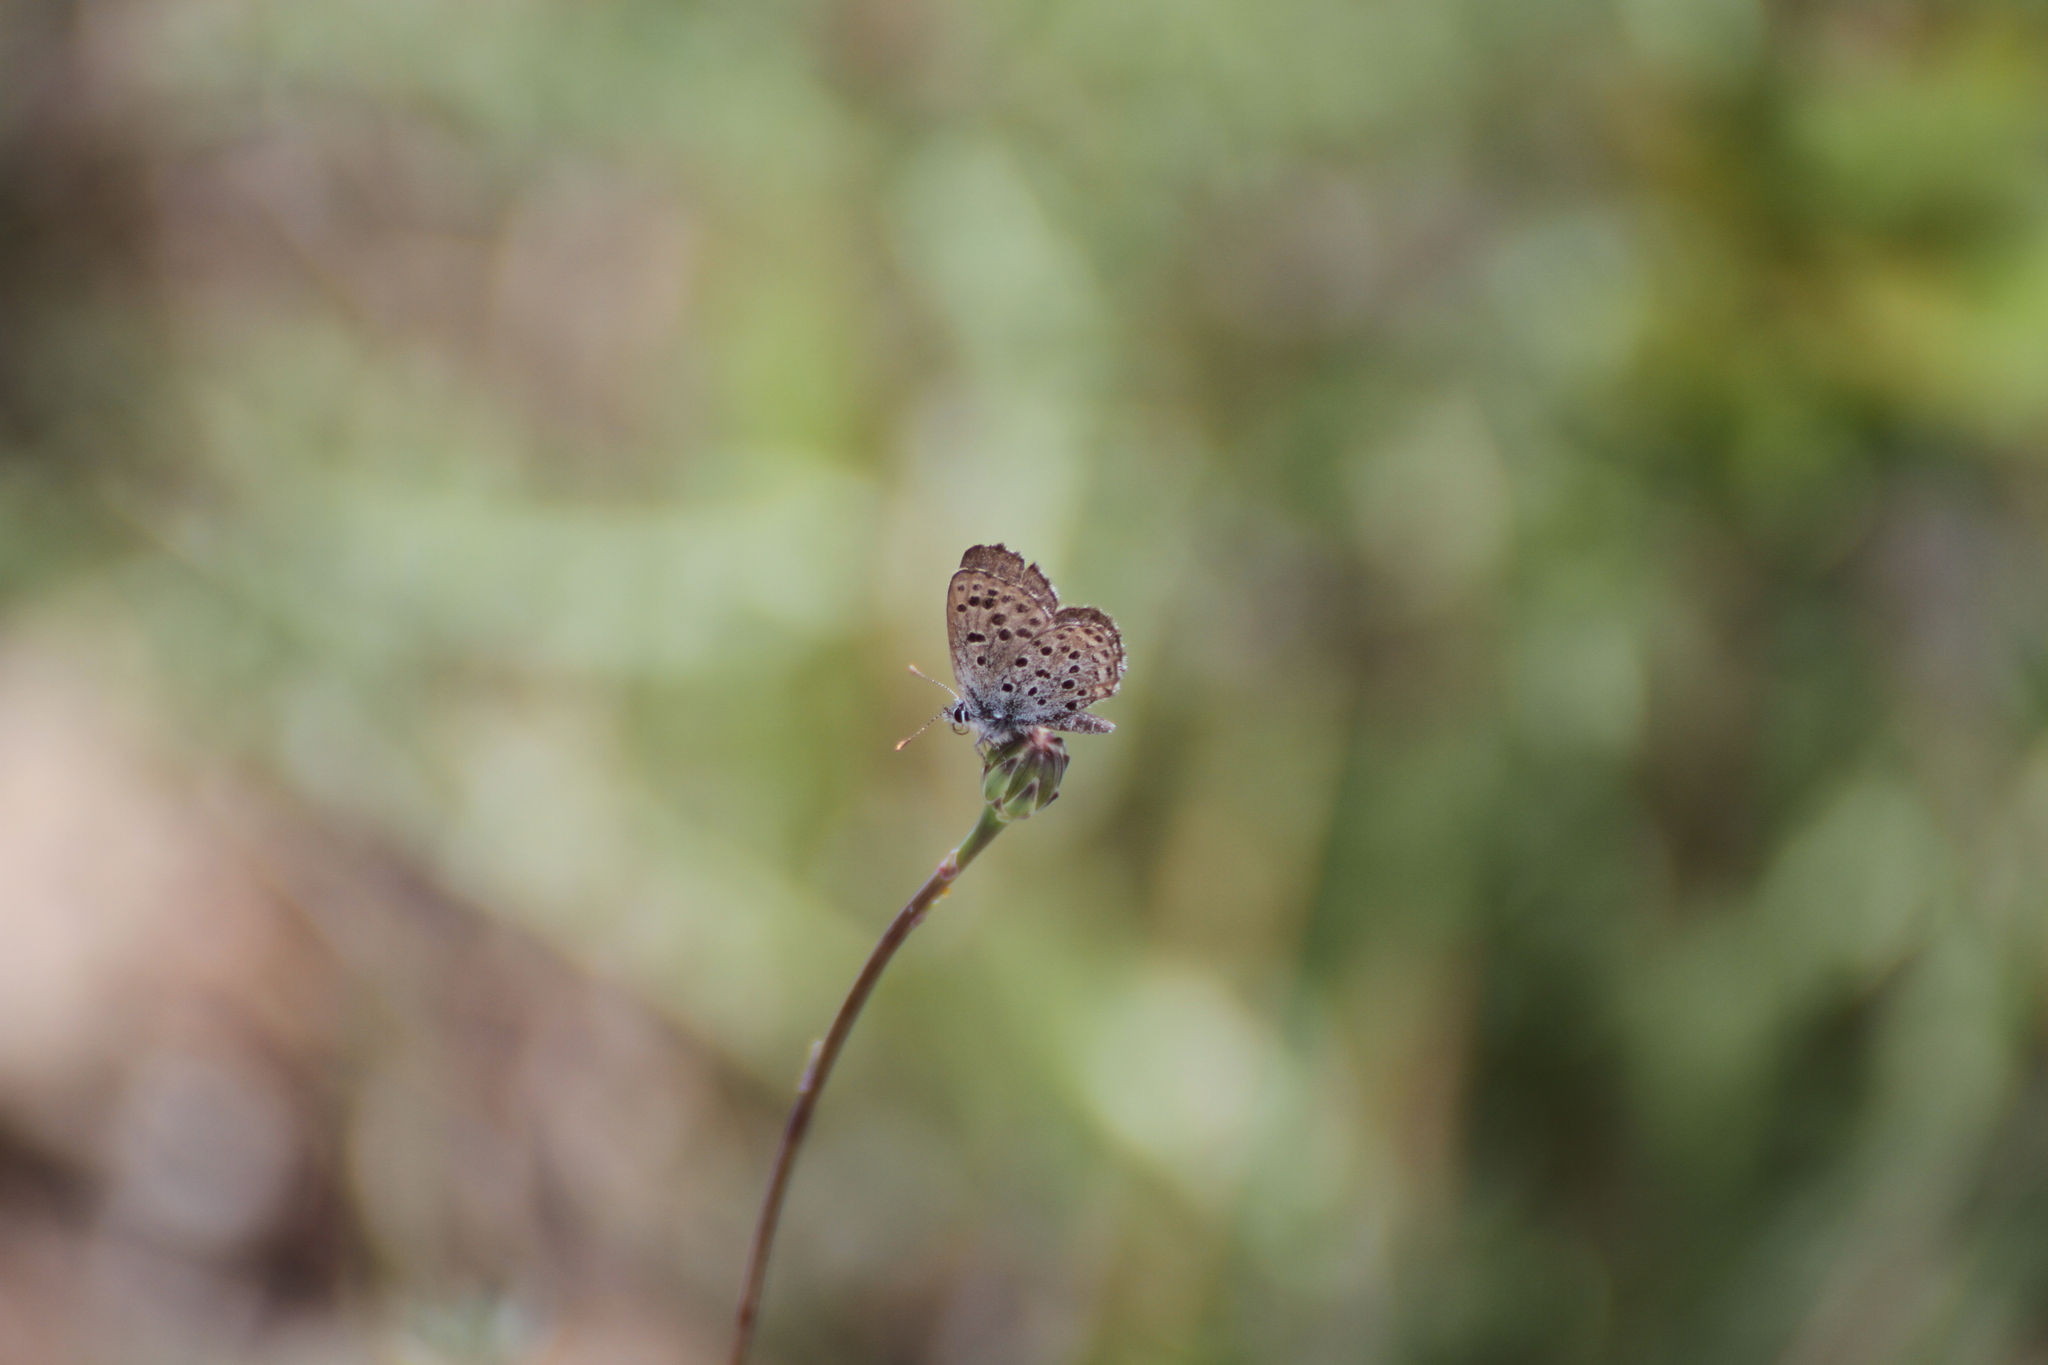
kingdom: Animalia
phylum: Arthropoda
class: Insecta
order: Lepidoptera
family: Lycaenidae
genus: Pseudophilotes
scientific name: Pseudophilotes baton
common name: Baton blue
